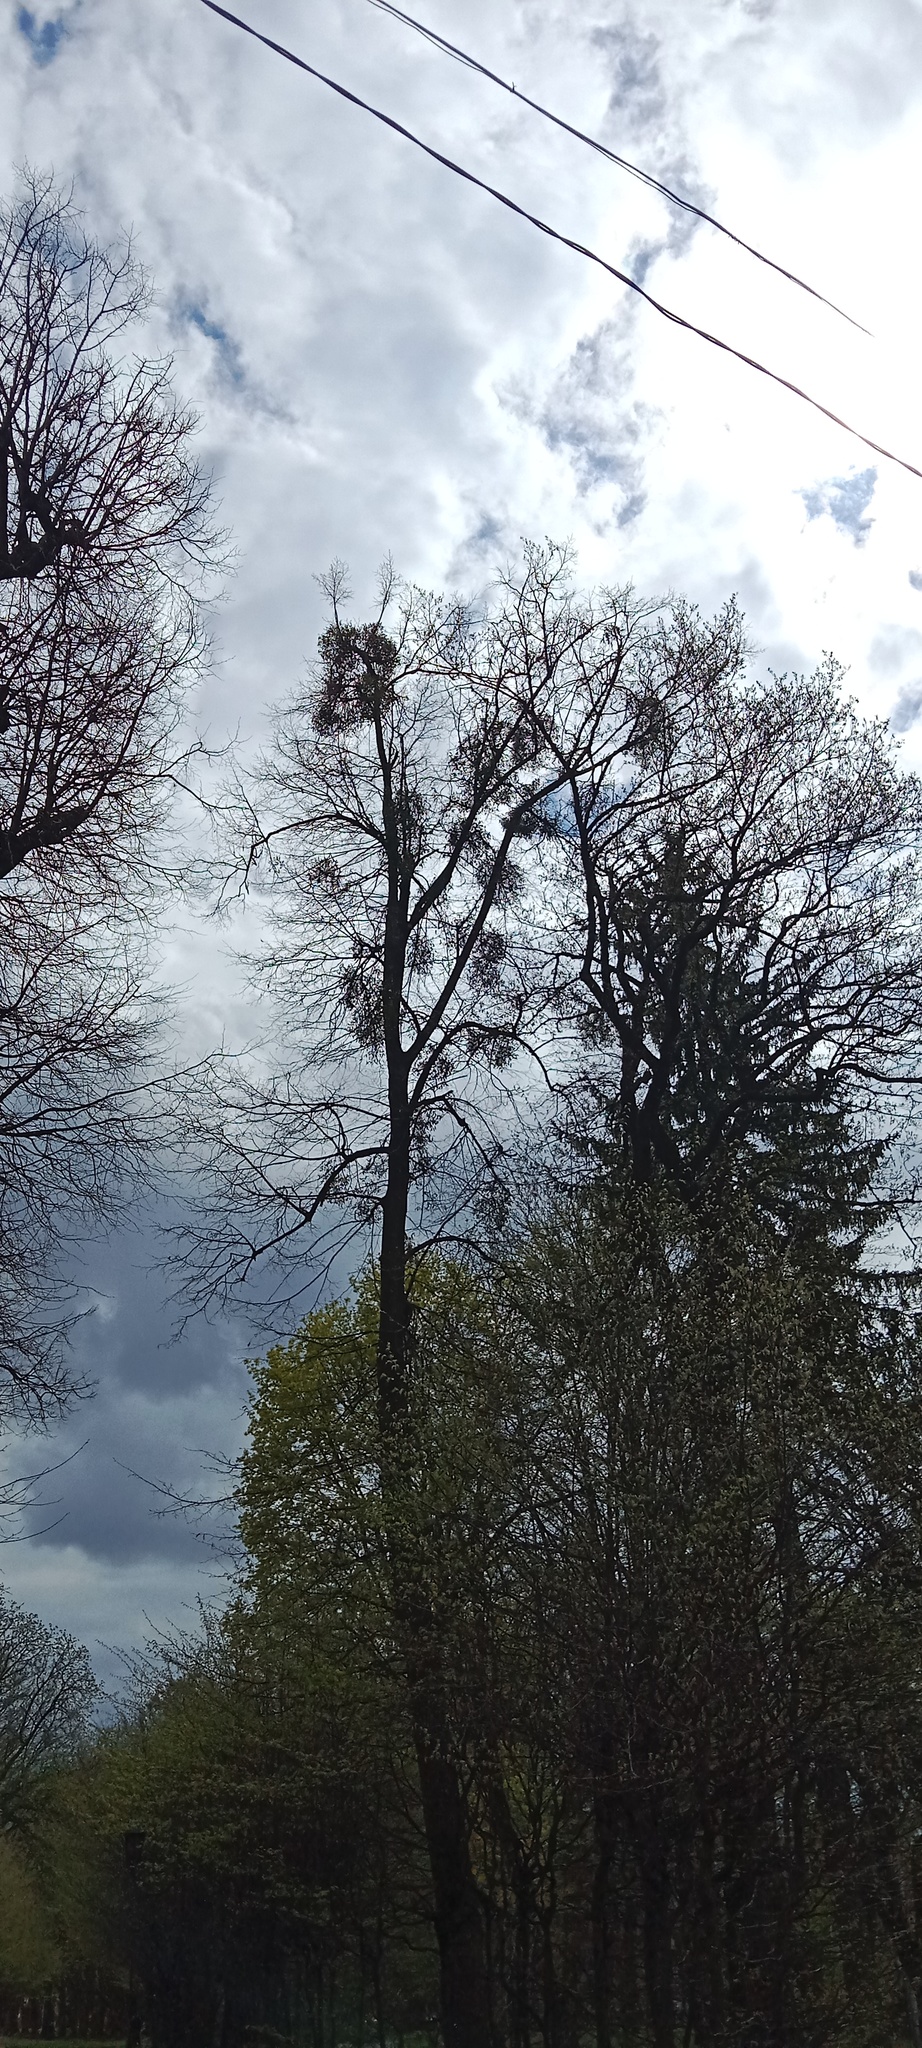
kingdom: Plantae
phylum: Tracheophyta
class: Magnoliopsida
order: Santalales
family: Viscaceae
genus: Viscum
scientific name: Viscum album
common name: Mistletoe
